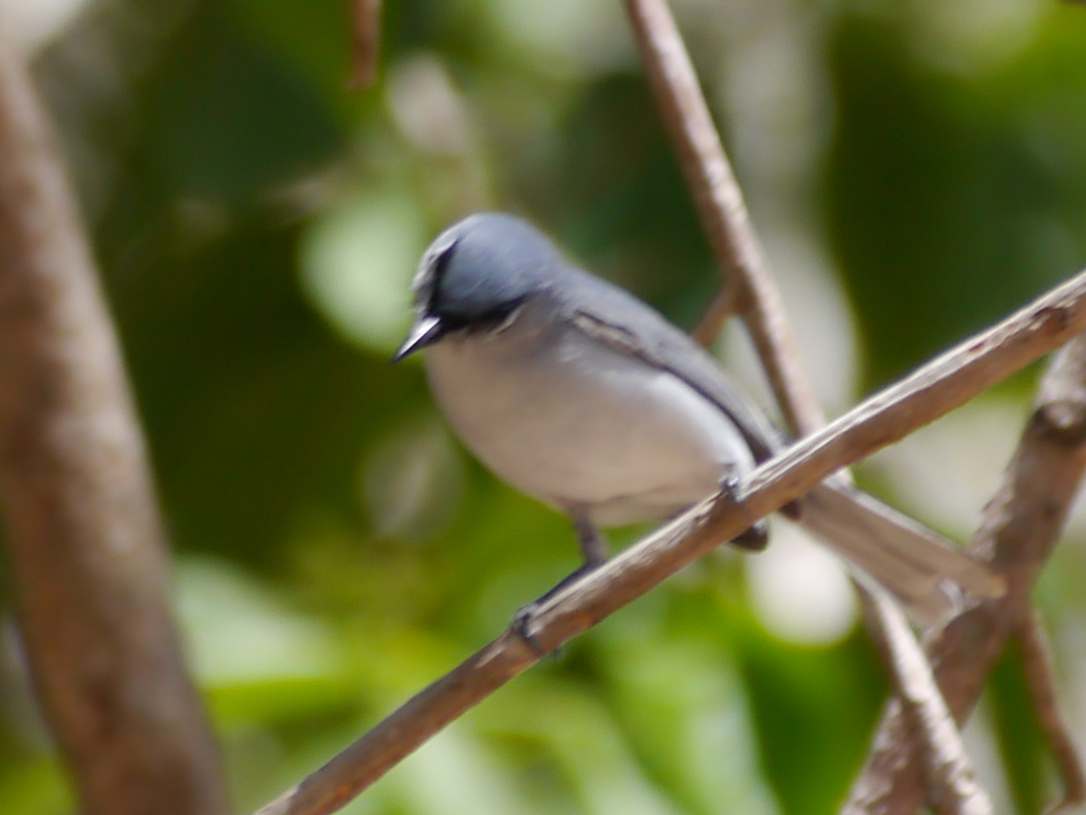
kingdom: Animalia
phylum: Chordata
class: Aves
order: Passeriformes
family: Polioptilidae
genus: Polioptila
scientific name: Polioptila caerulea
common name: Blue-gray gnatcatcher
